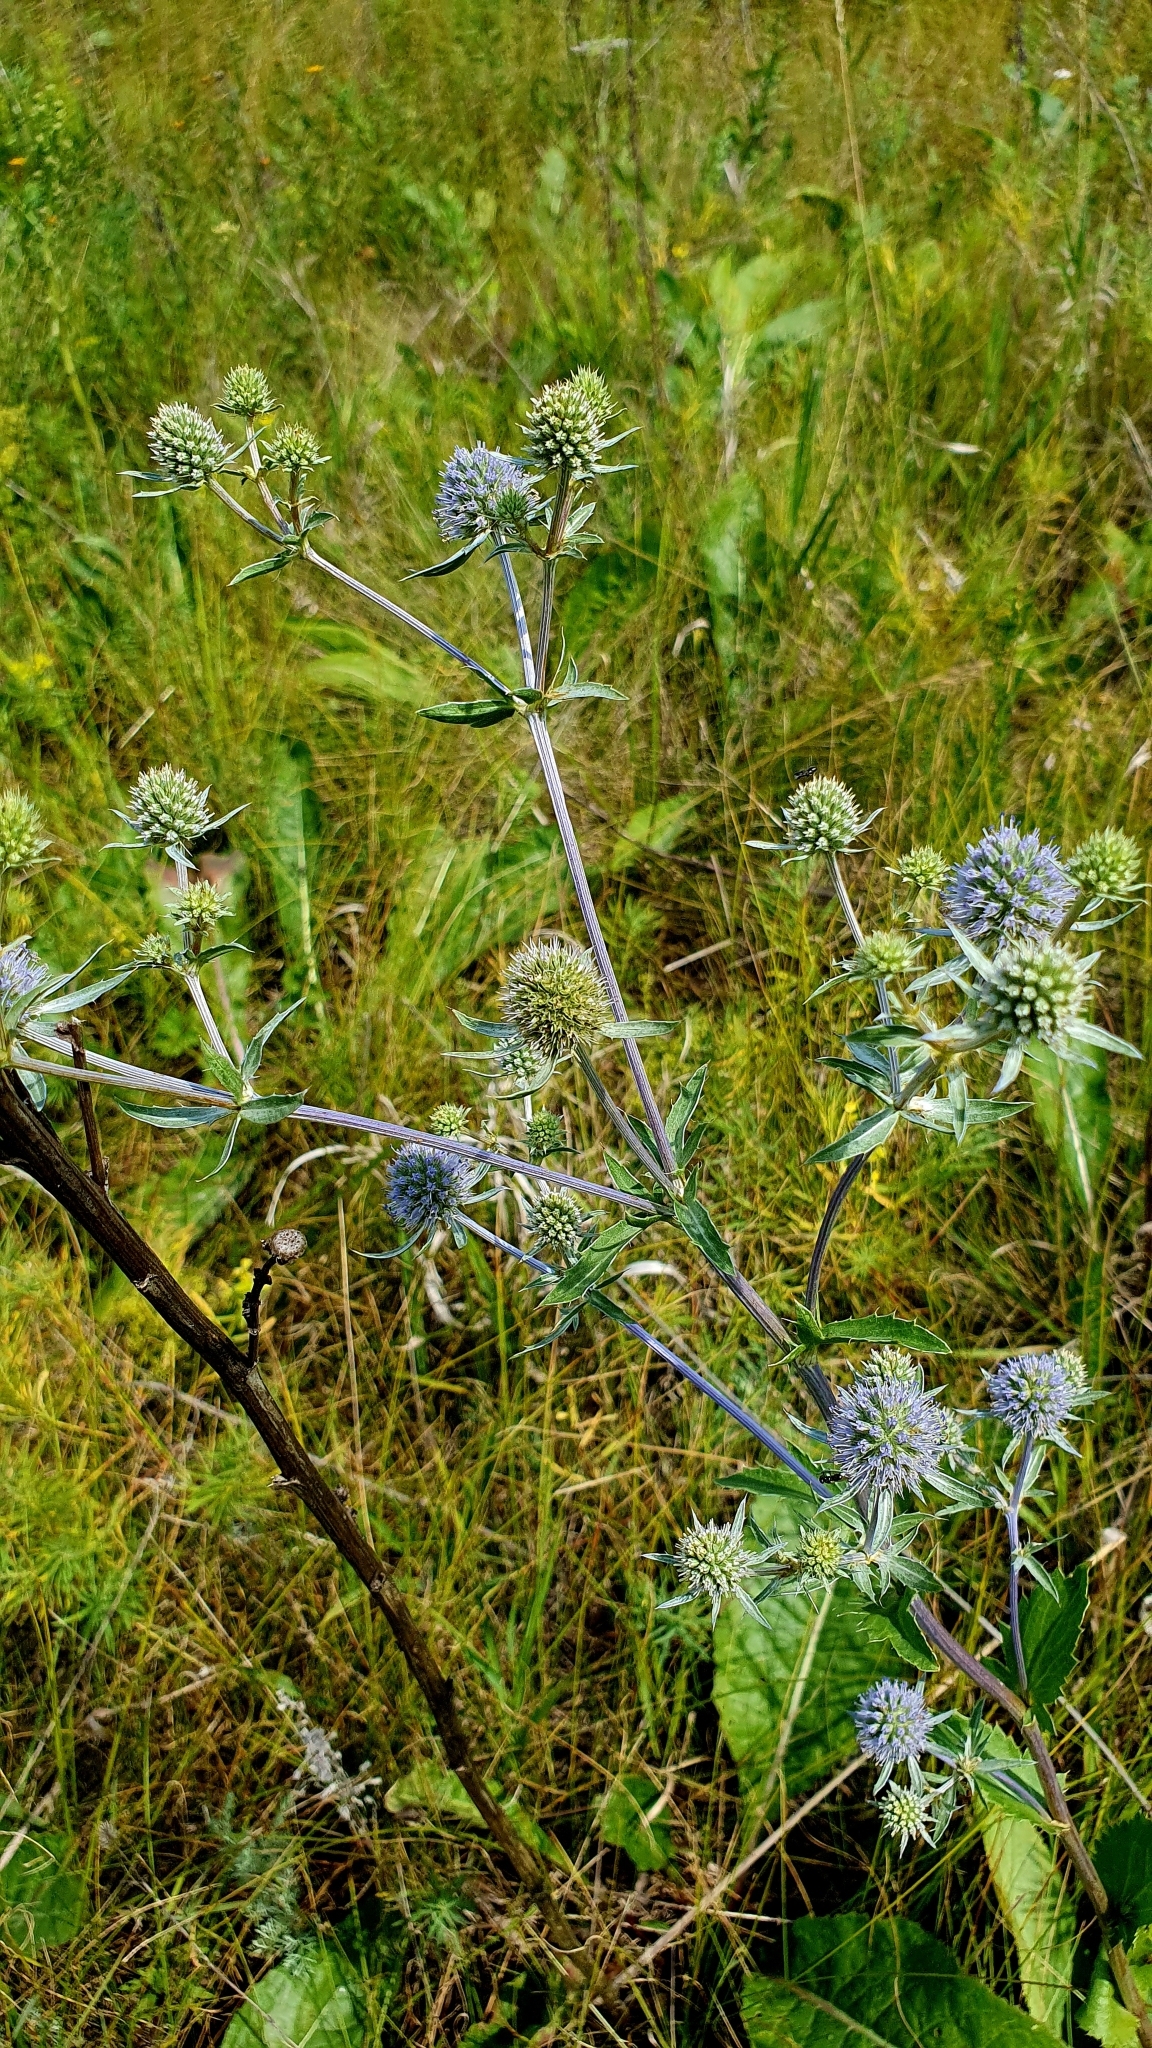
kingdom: Plantae
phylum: Tracheophyta
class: Magnoliopsida
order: Apiales
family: Apiaceae
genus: Eryngium
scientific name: Eryngium planum
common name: Blue eryngo
